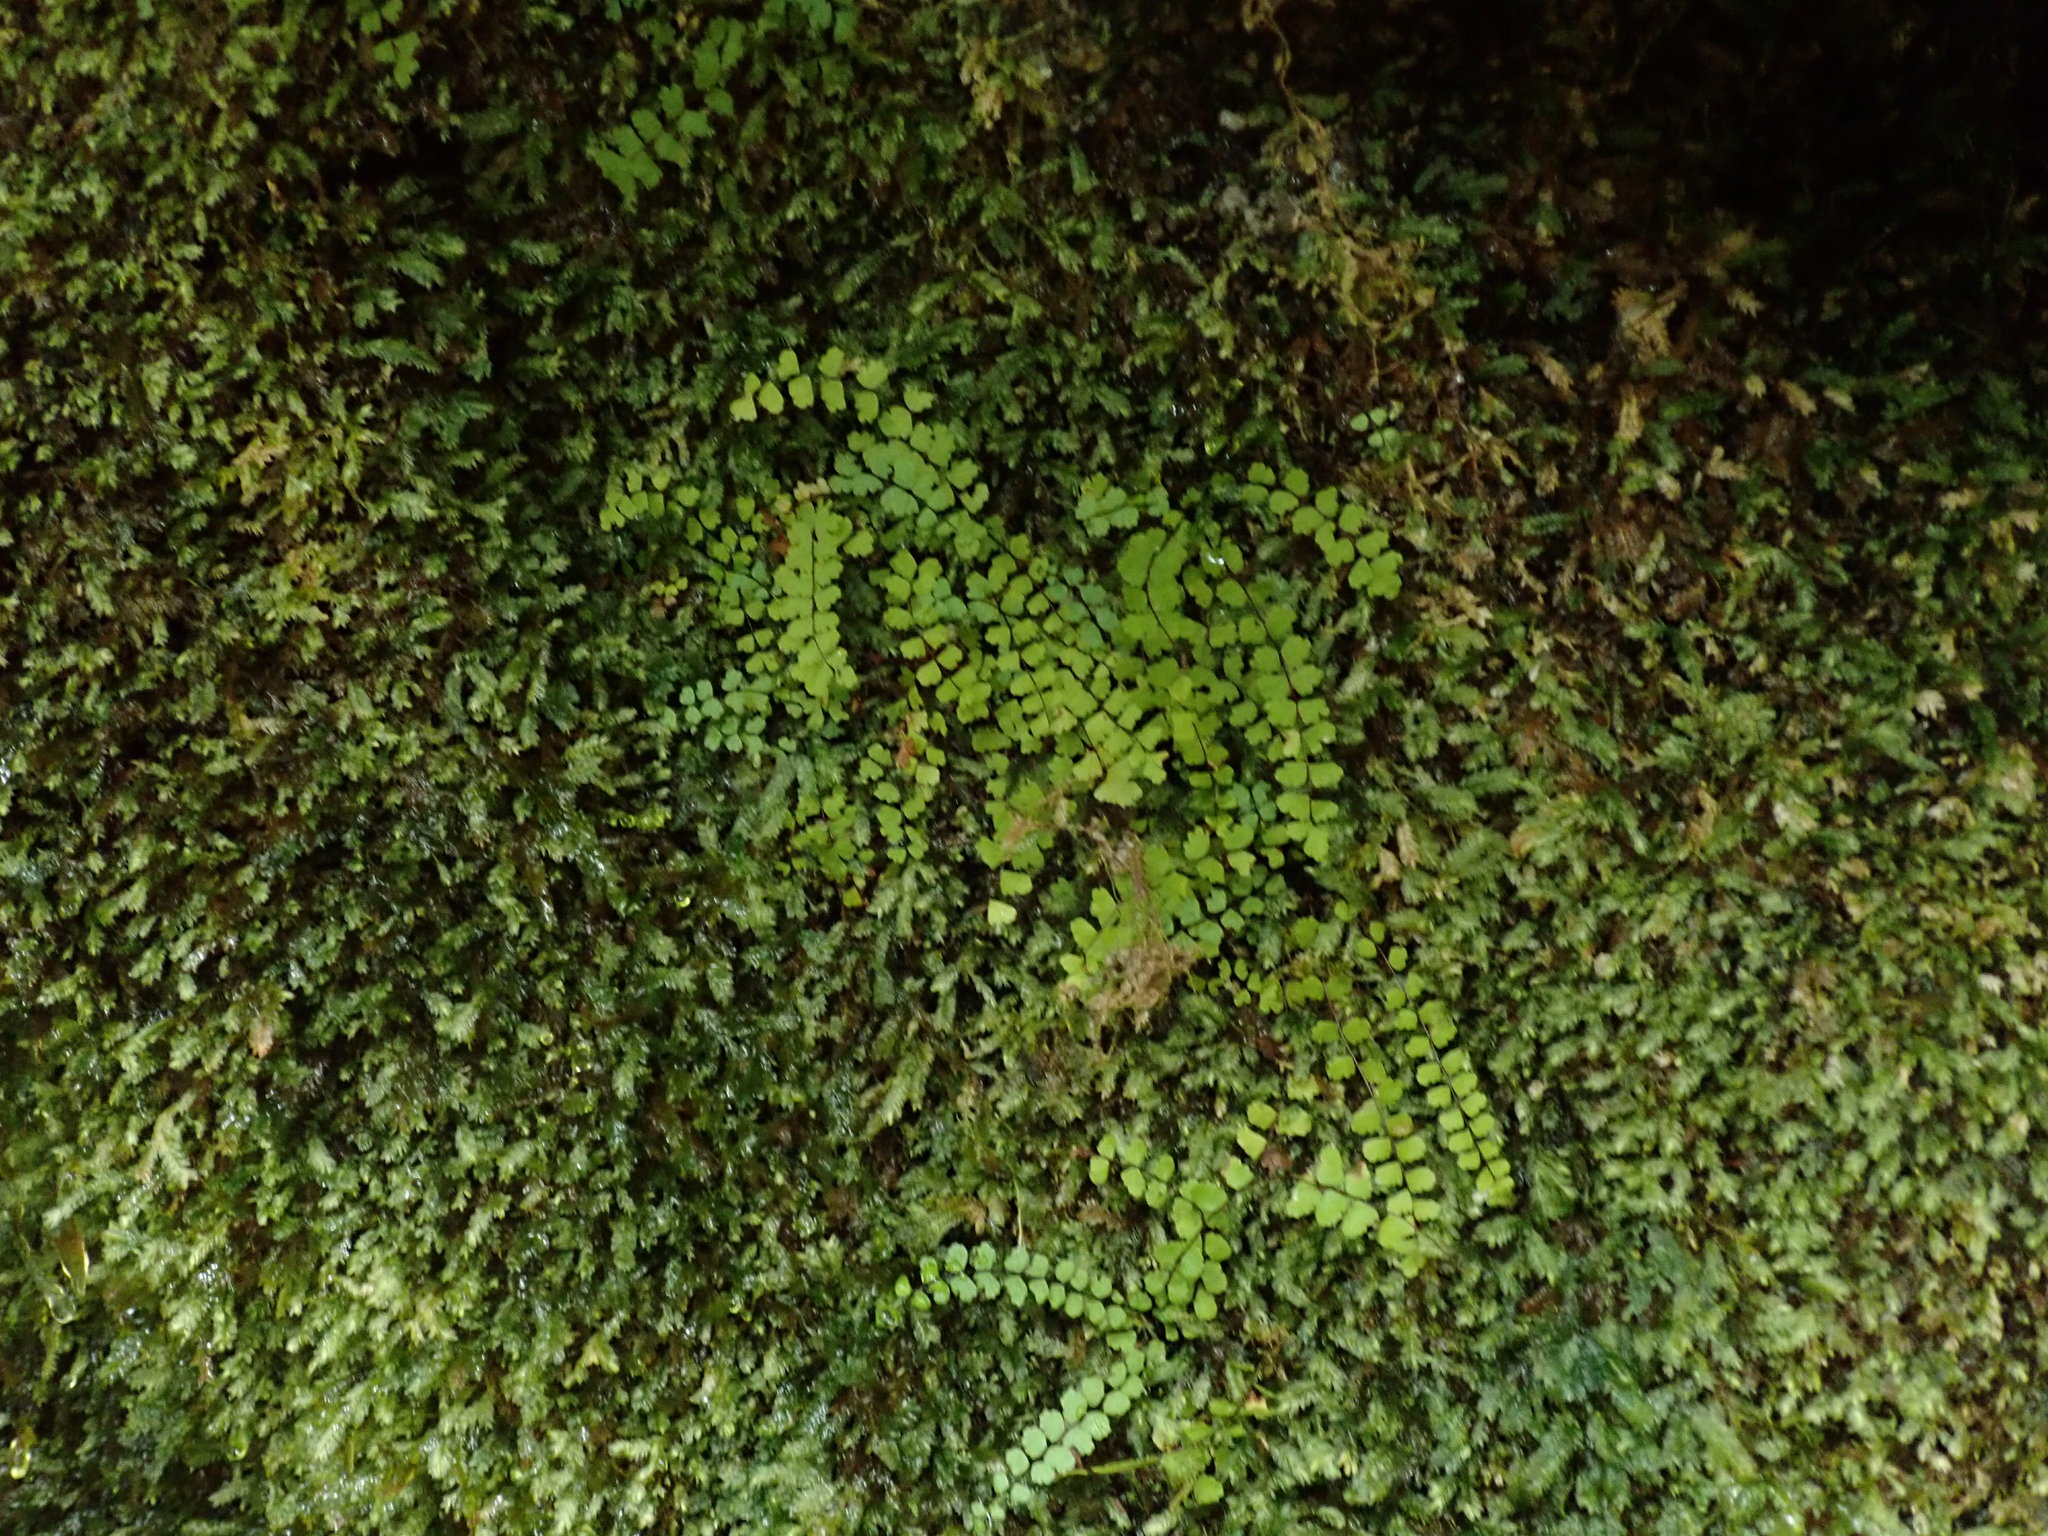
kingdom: Plantae
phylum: Tracheophyta
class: Polypodiopsida
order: Polypodiales
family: Aspleniaceae
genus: Asplenium
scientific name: Asplenium trichomanes
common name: Maidenhair spleenwort
